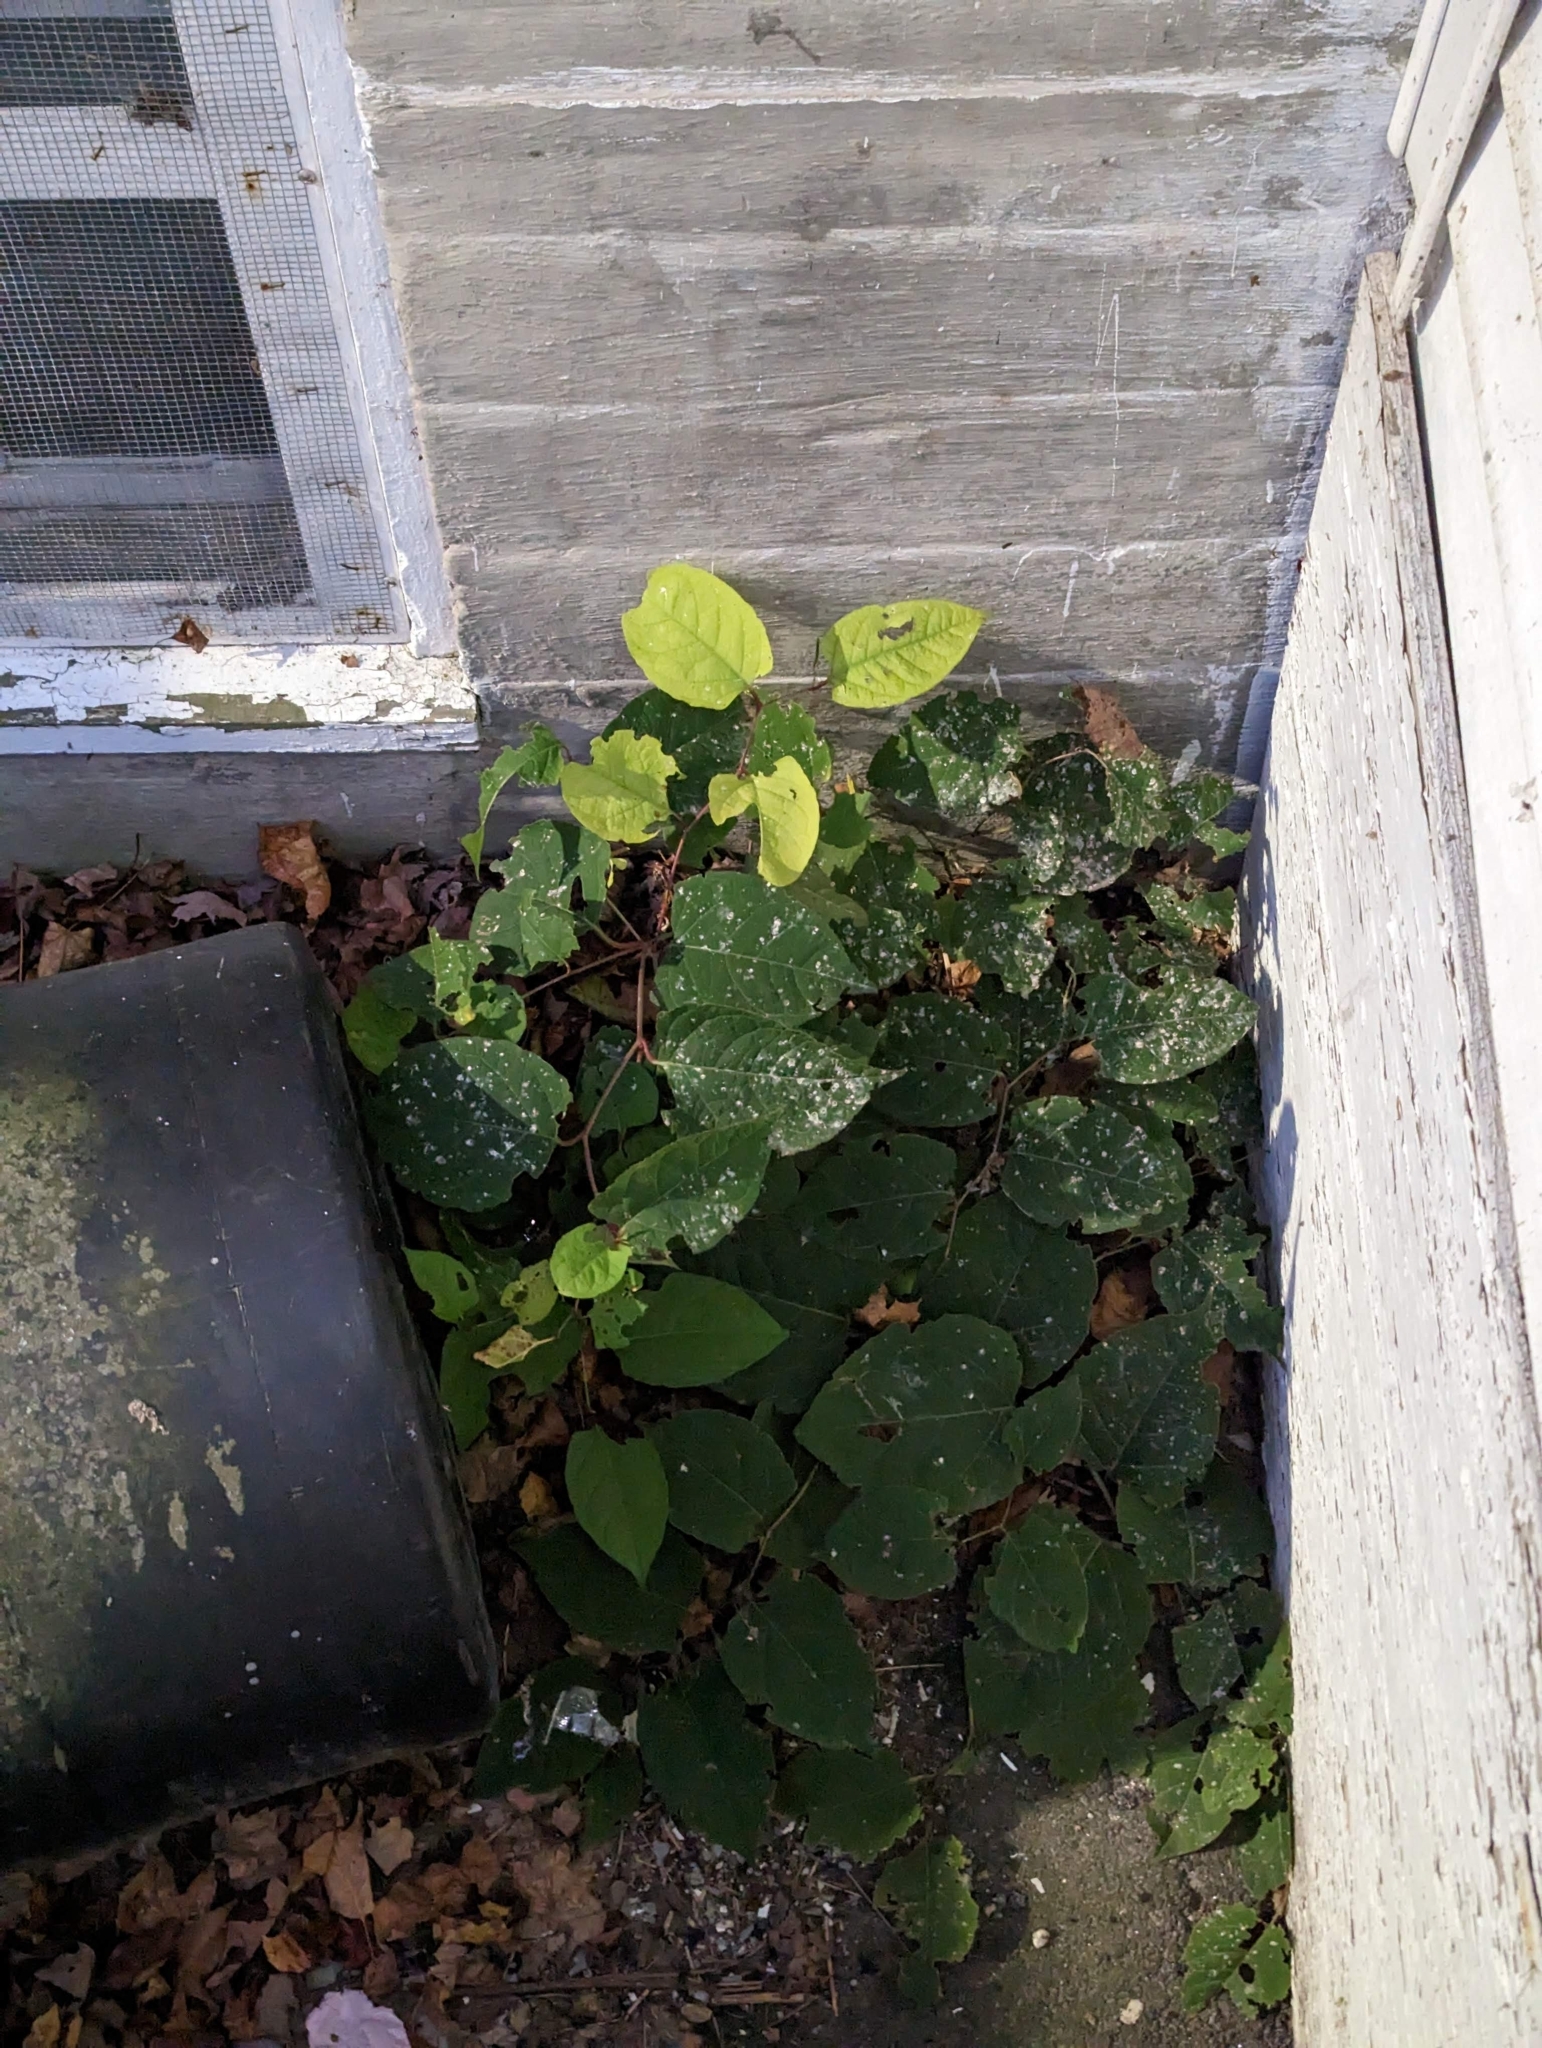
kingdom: Plantae
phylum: Tracheophyta
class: Magnoliopsida
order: Caryophyllales
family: Polygonaceae
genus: Reynoutria
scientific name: Reynoutria japonica
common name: Japanese knotweed
